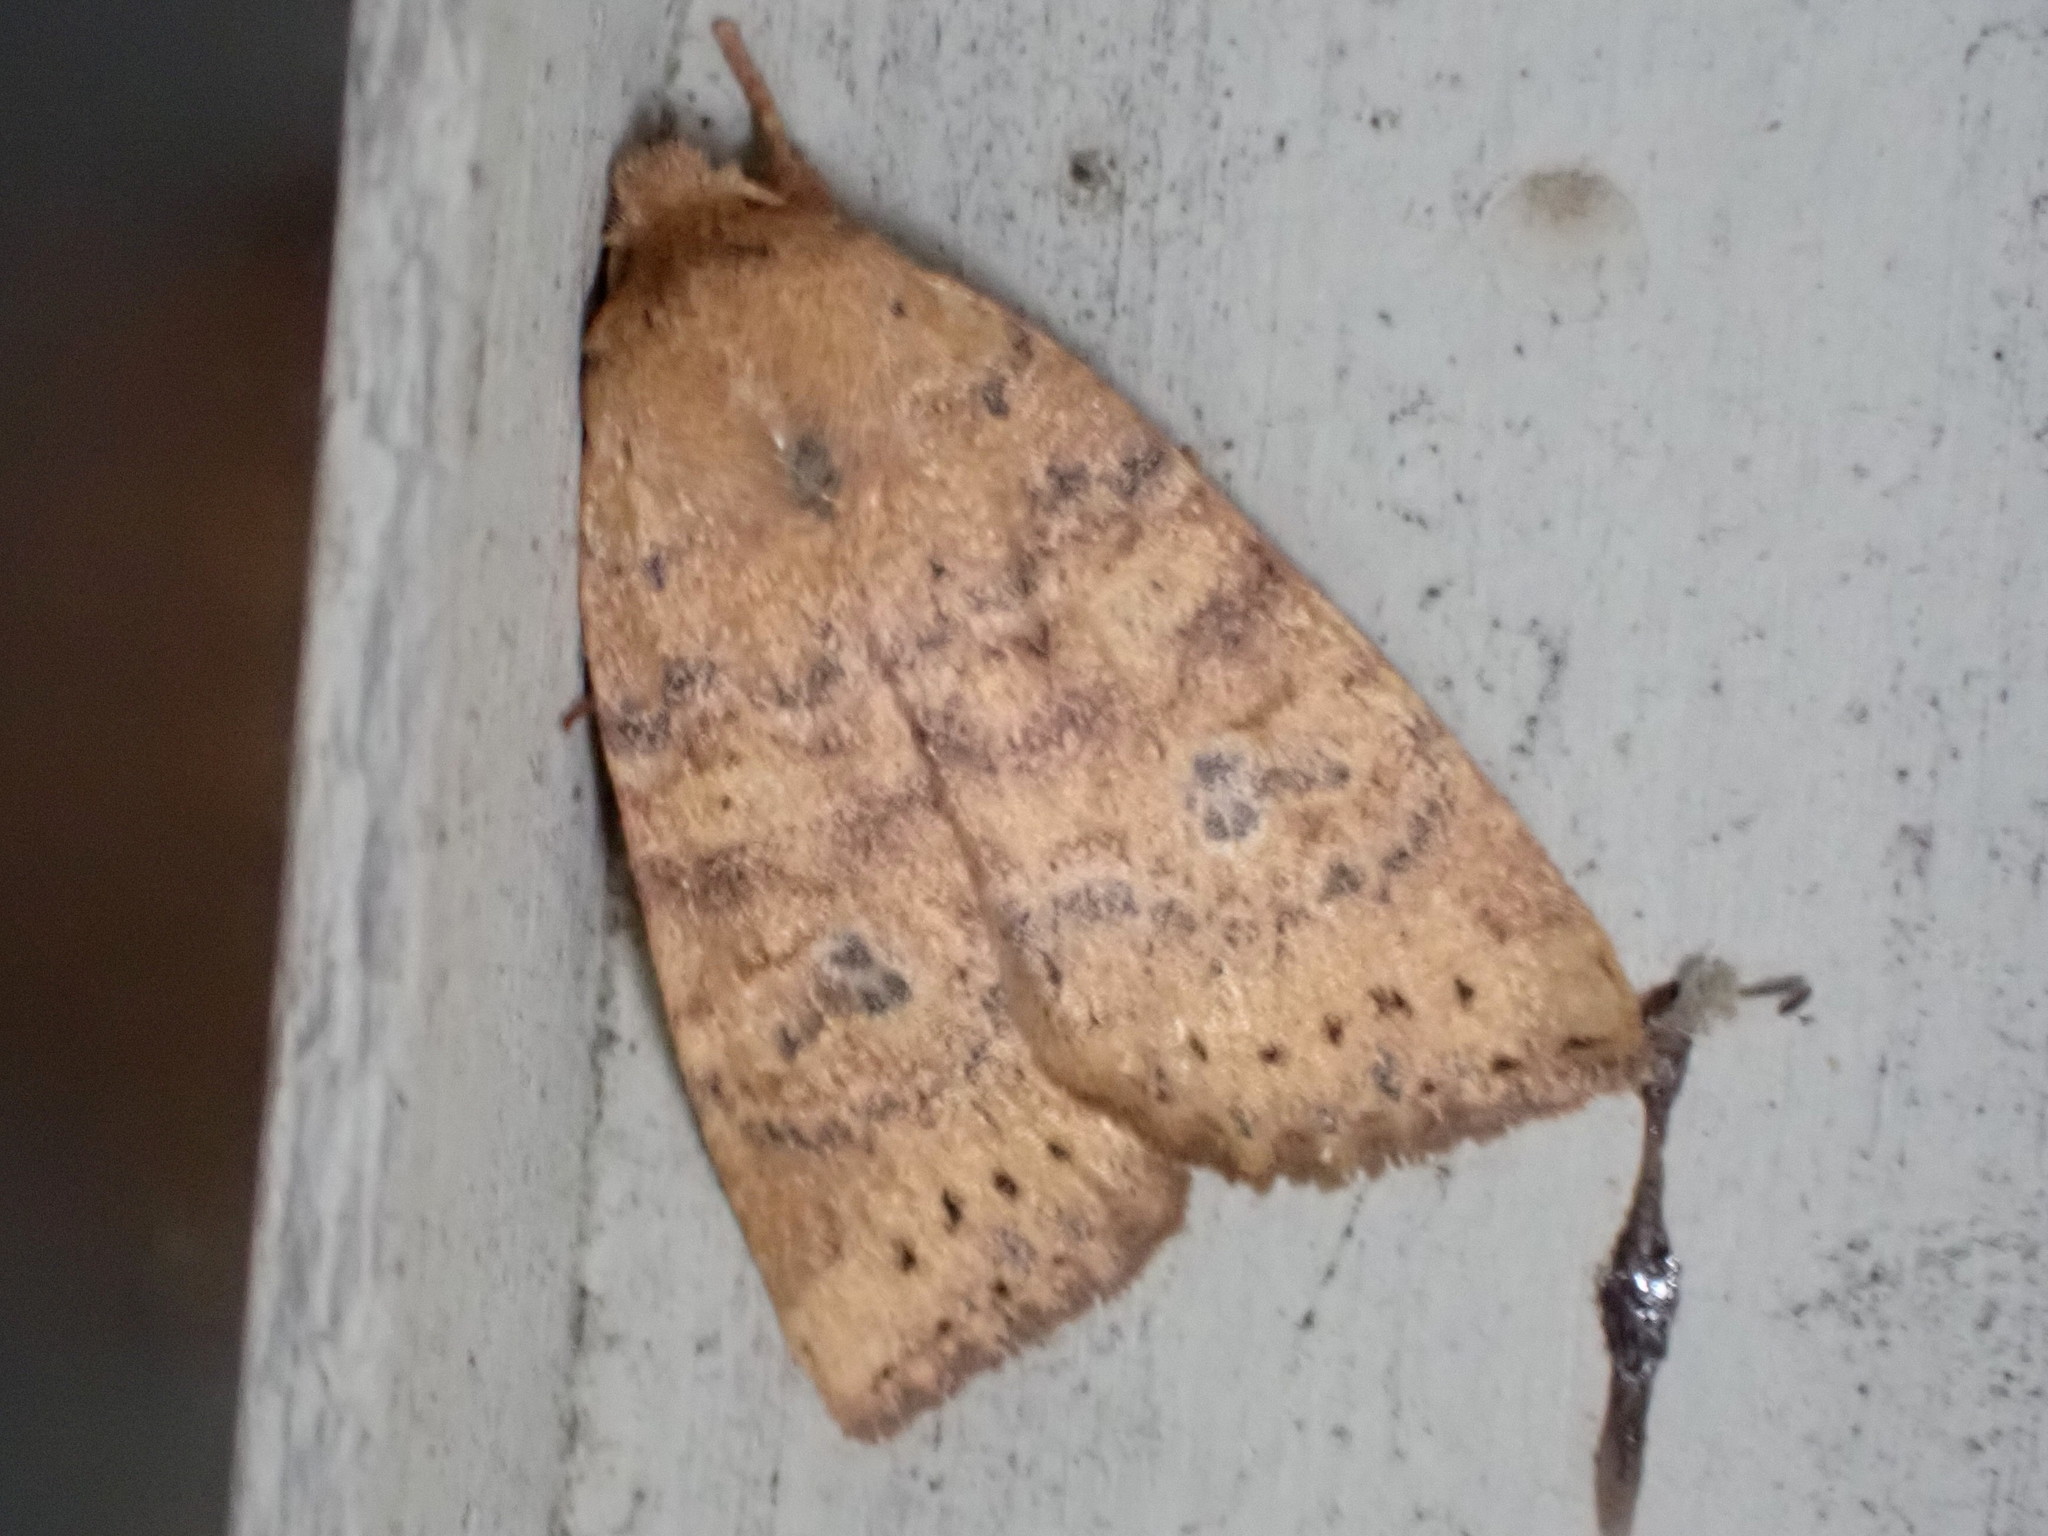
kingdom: Animalia
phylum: Arthropoda
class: Insecta
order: Lepidoptera
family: Noctuidae
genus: Anathix
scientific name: Anathix ralla
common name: Dotted sallow
